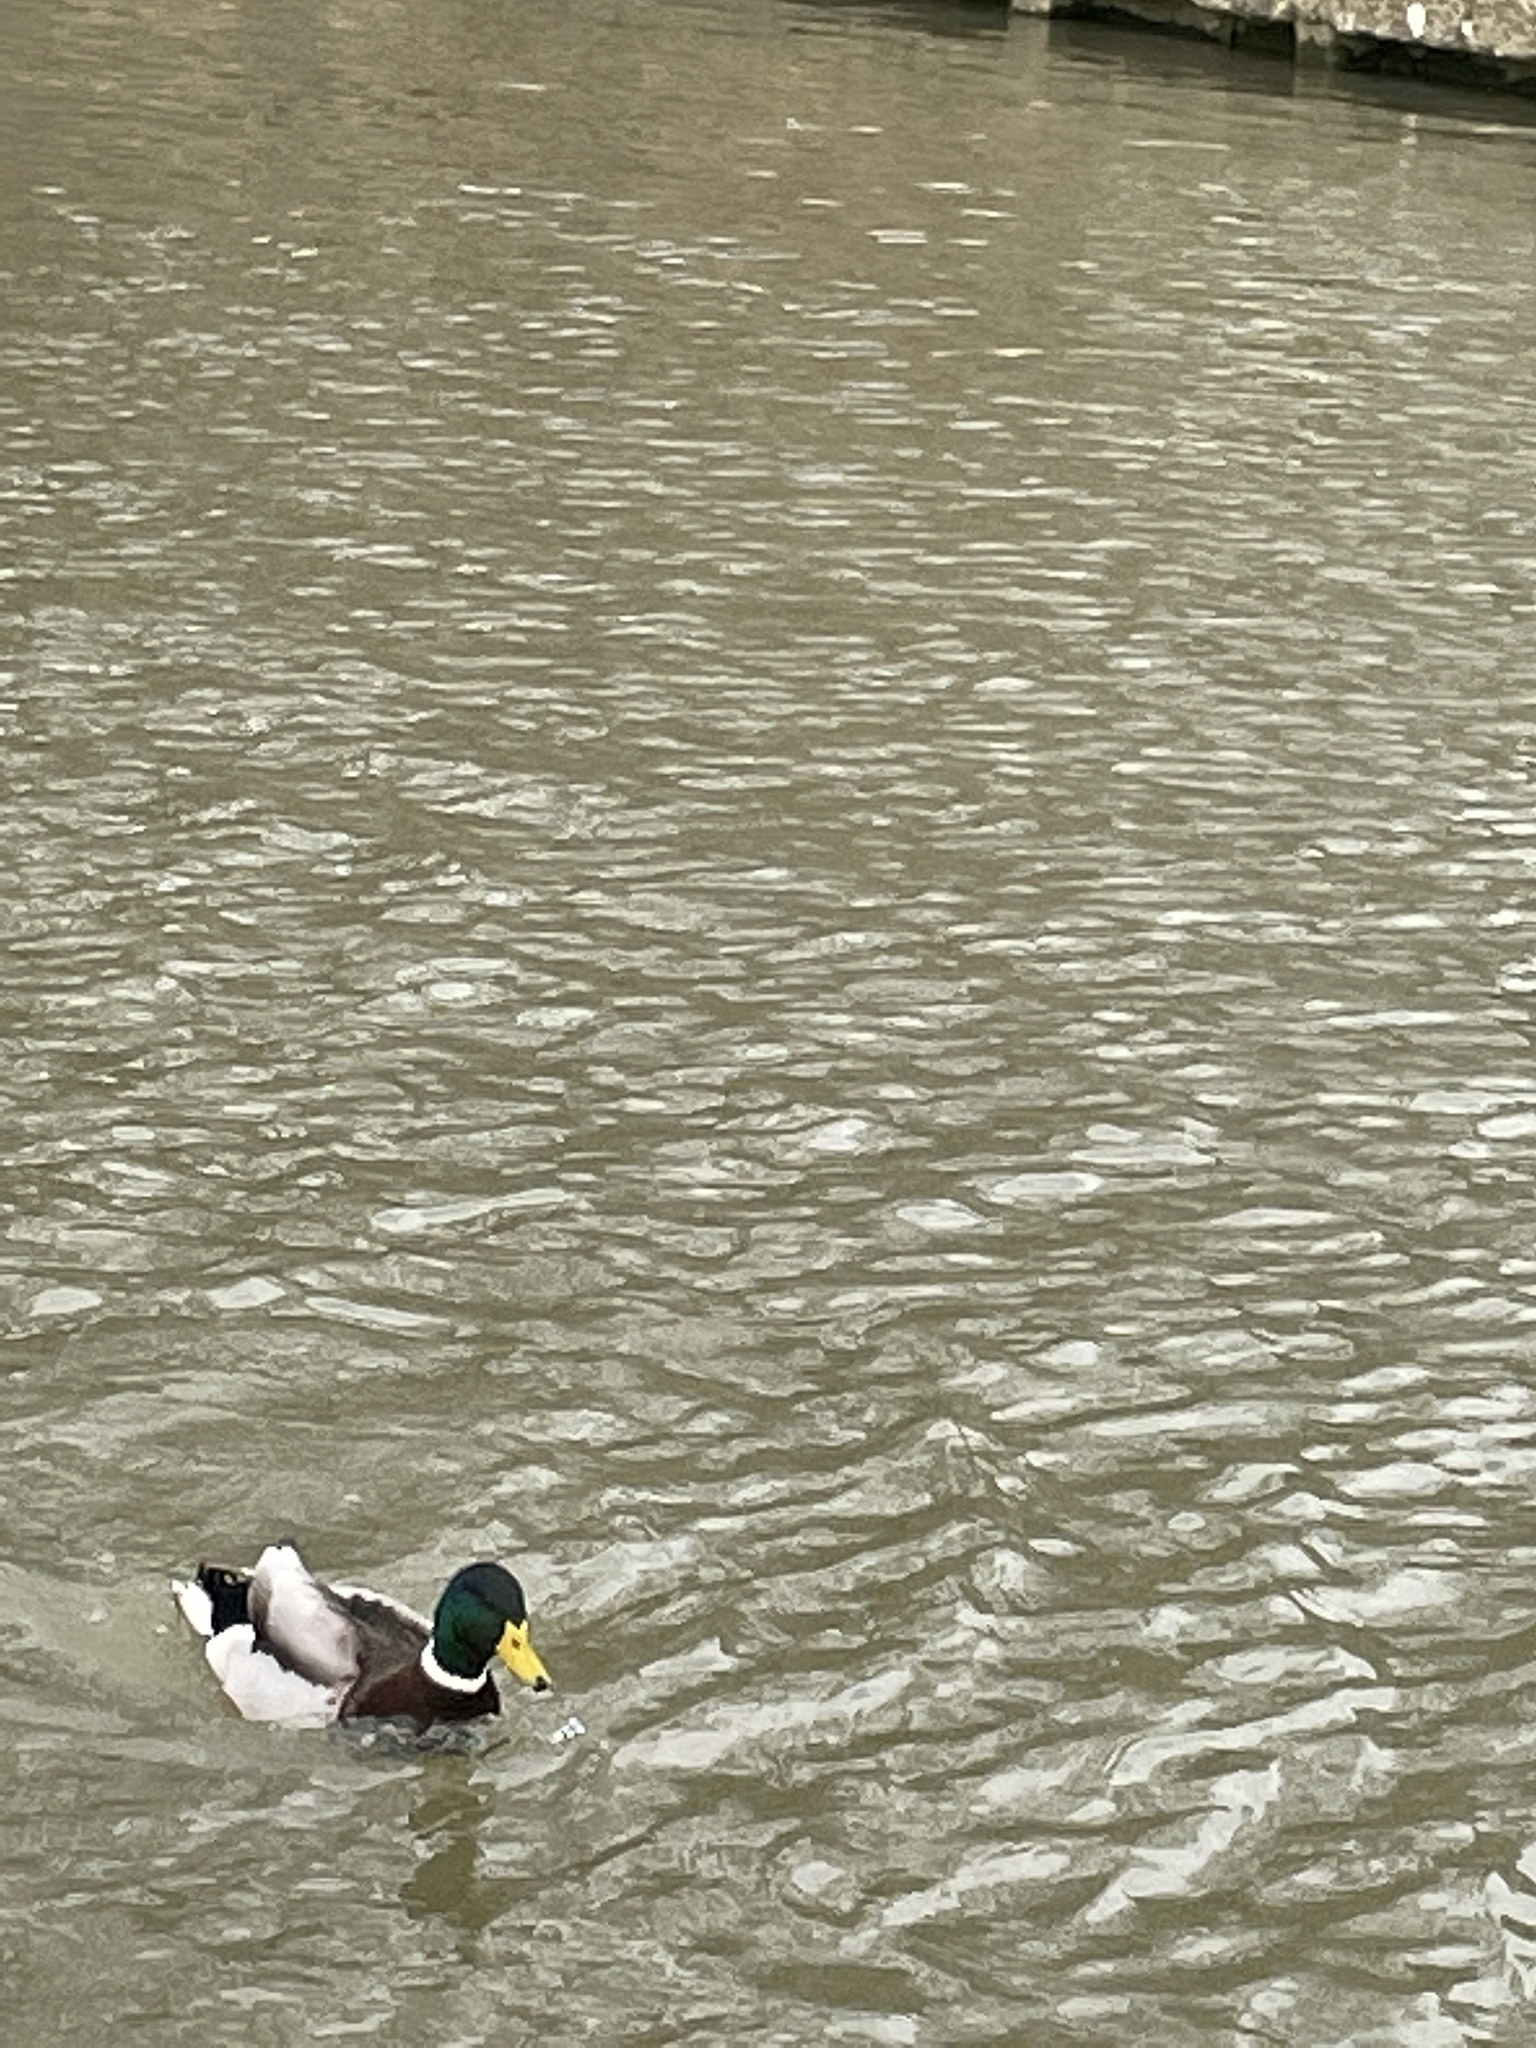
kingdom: Animalia
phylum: Chordata
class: Aves
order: Anseriformes
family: Anatidae
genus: Anas
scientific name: Anas platyrhynchos
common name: Mallard
